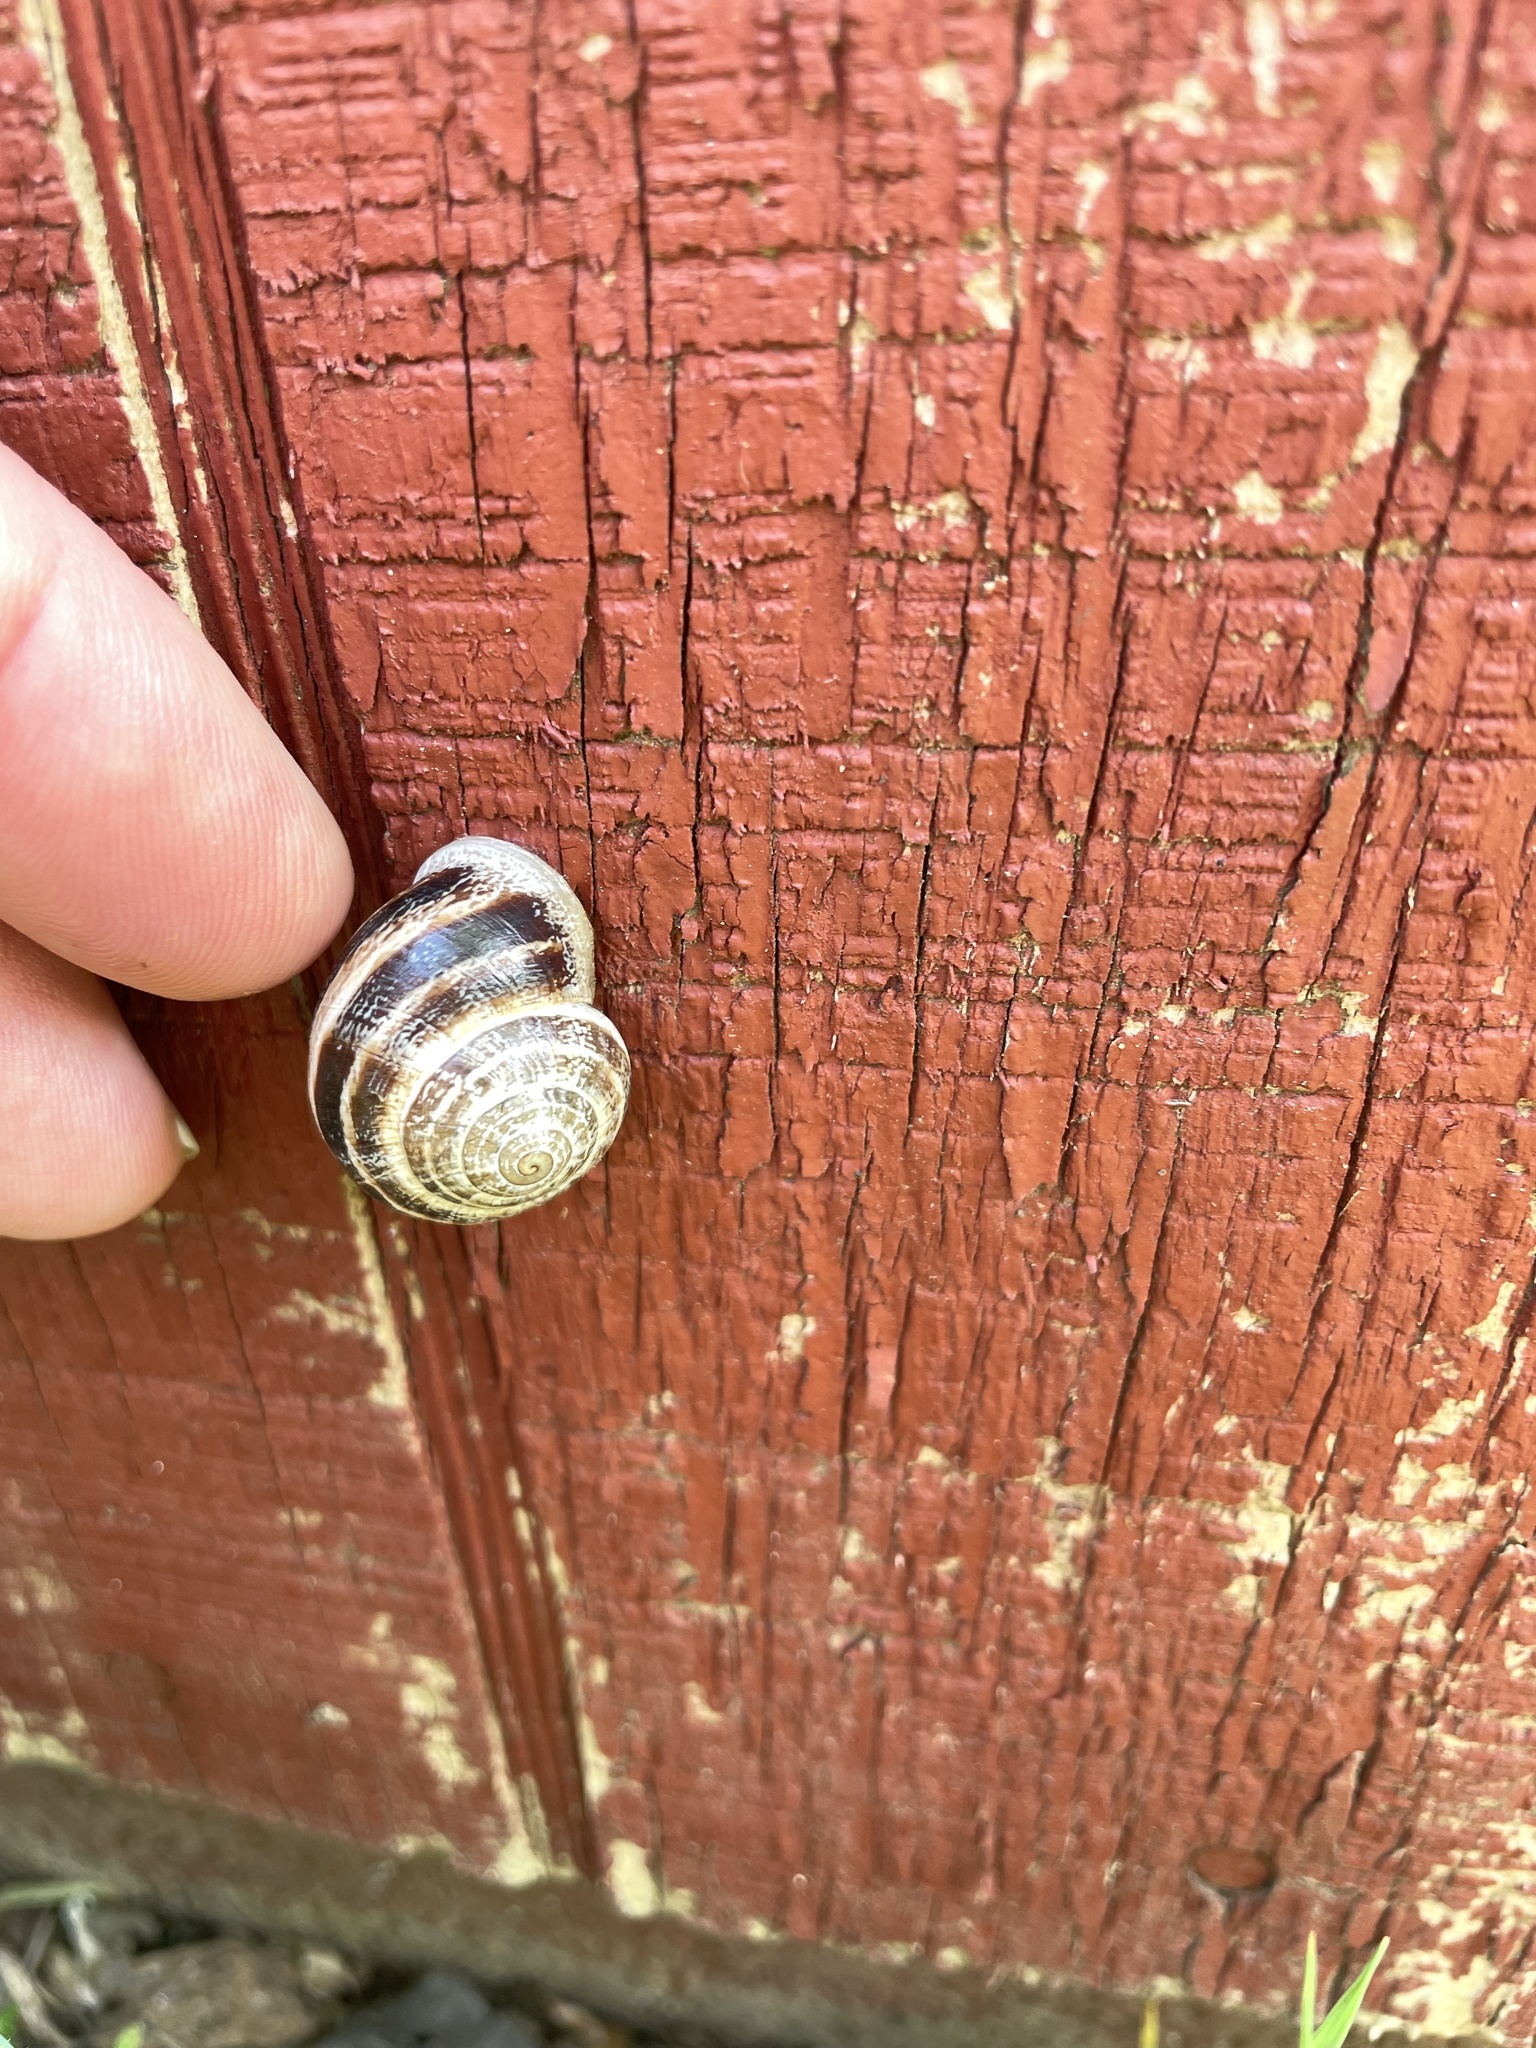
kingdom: Animalia
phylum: Mollusca
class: Gastropoda
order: Stylommatophora
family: Helicidae
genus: Otala
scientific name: Otala lactea
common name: Milk snail
